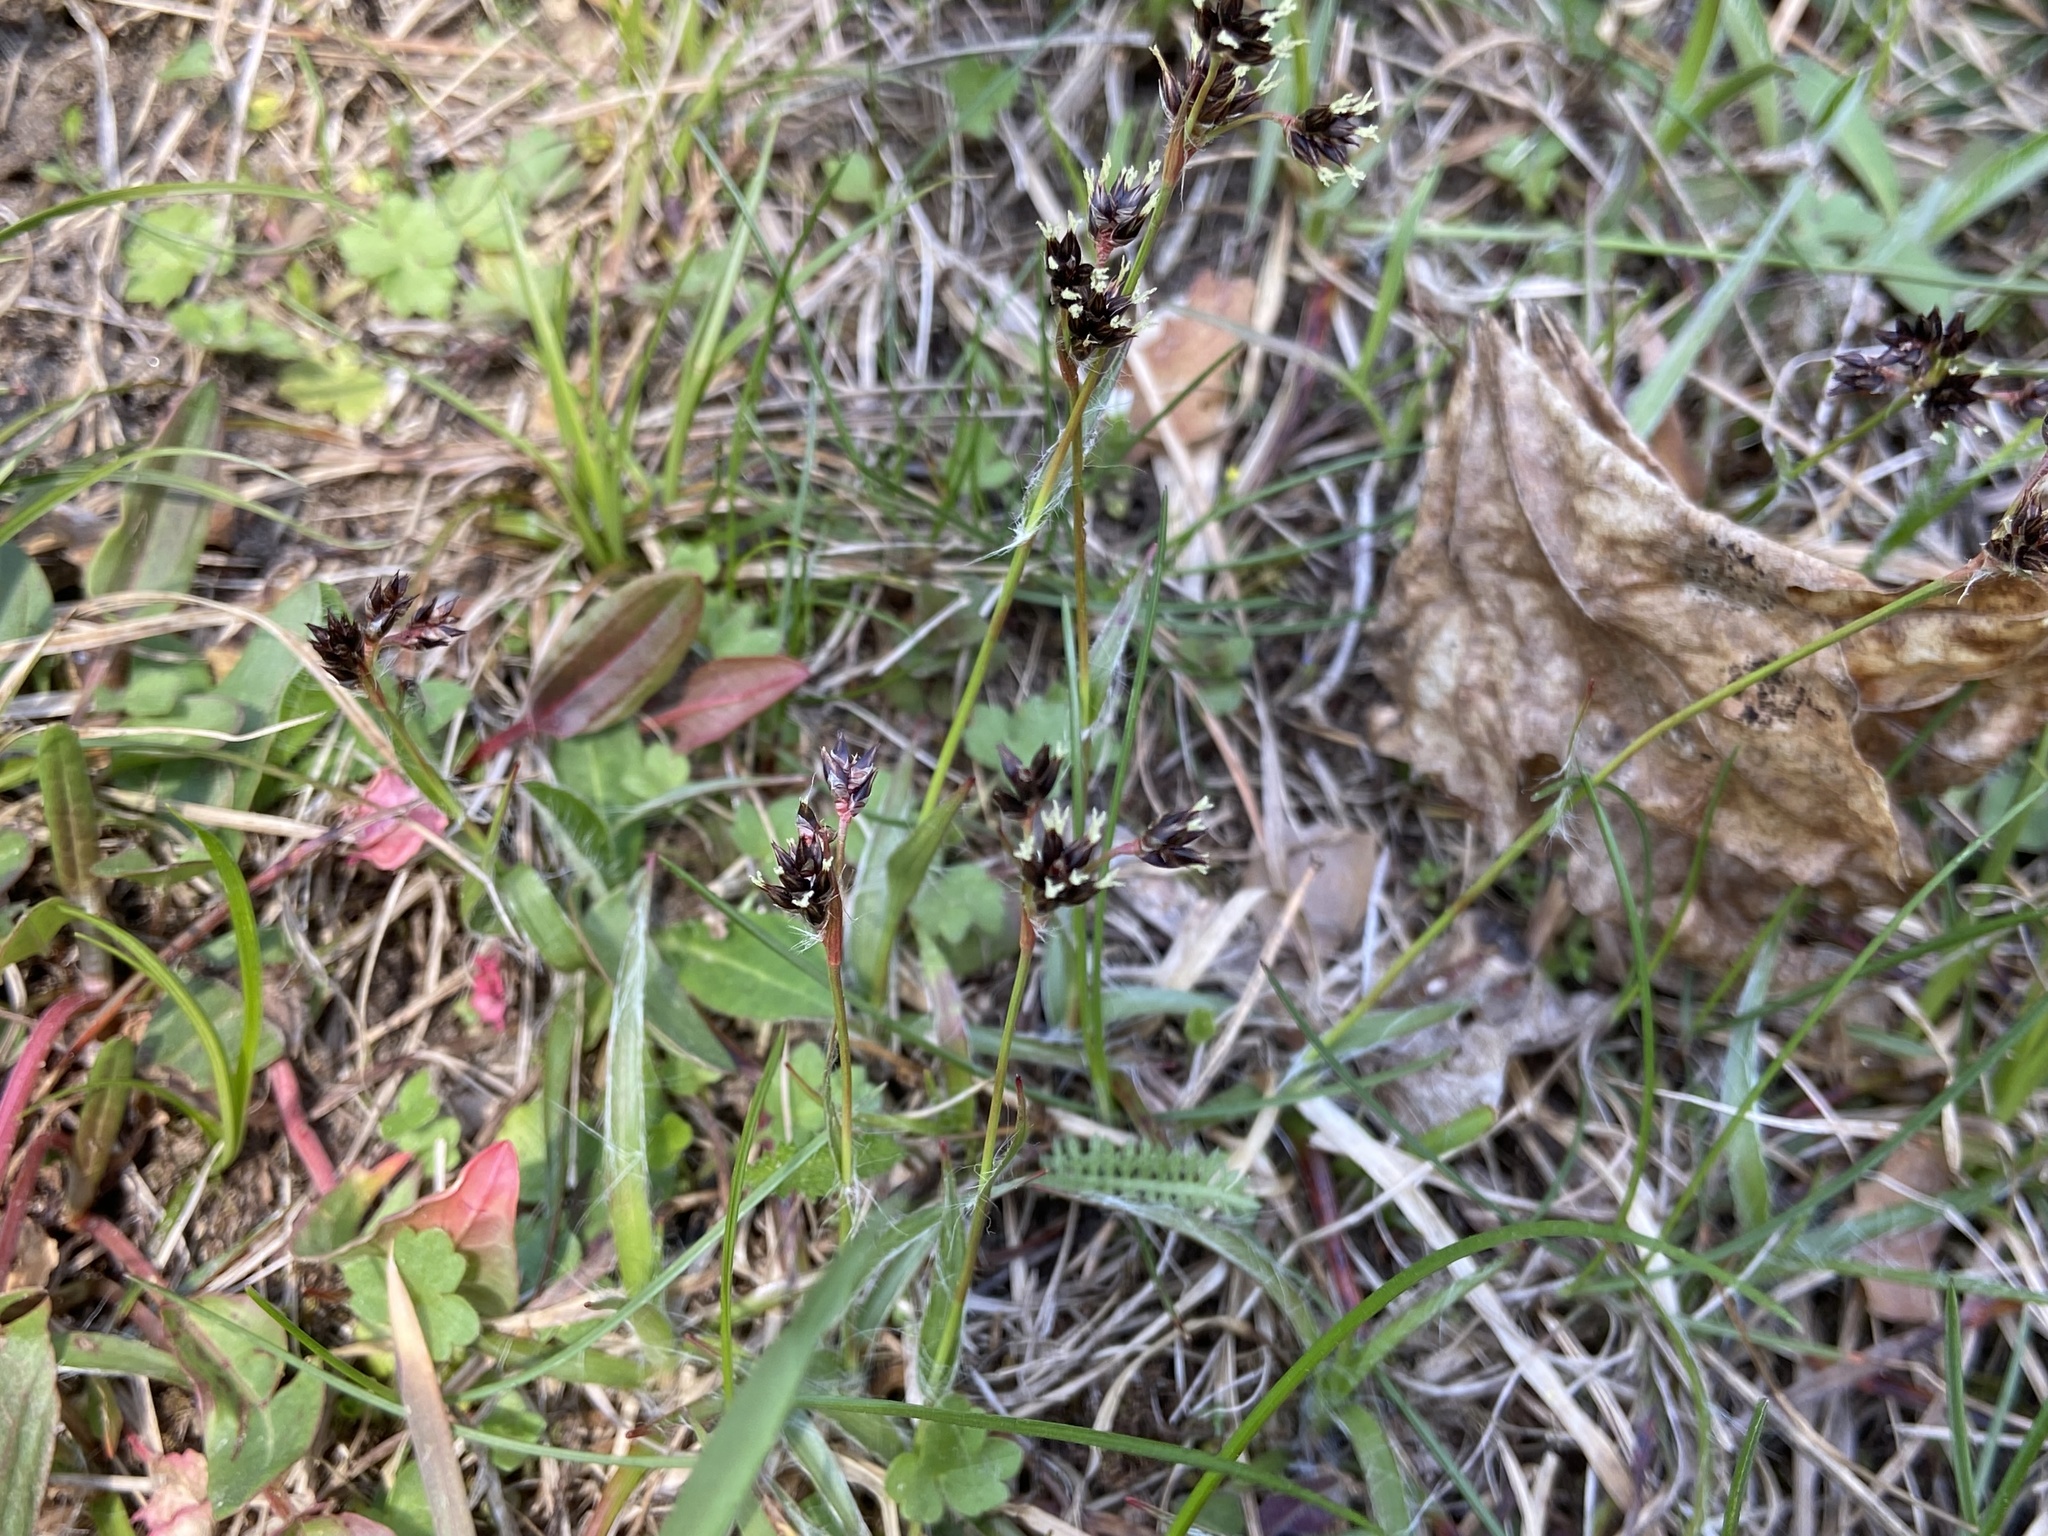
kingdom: Plantae
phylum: Tracheophyta
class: Liliopsida
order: Poales
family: Juncaceae
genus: Luzula
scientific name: Luzula campestris
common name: Field wood-rush
